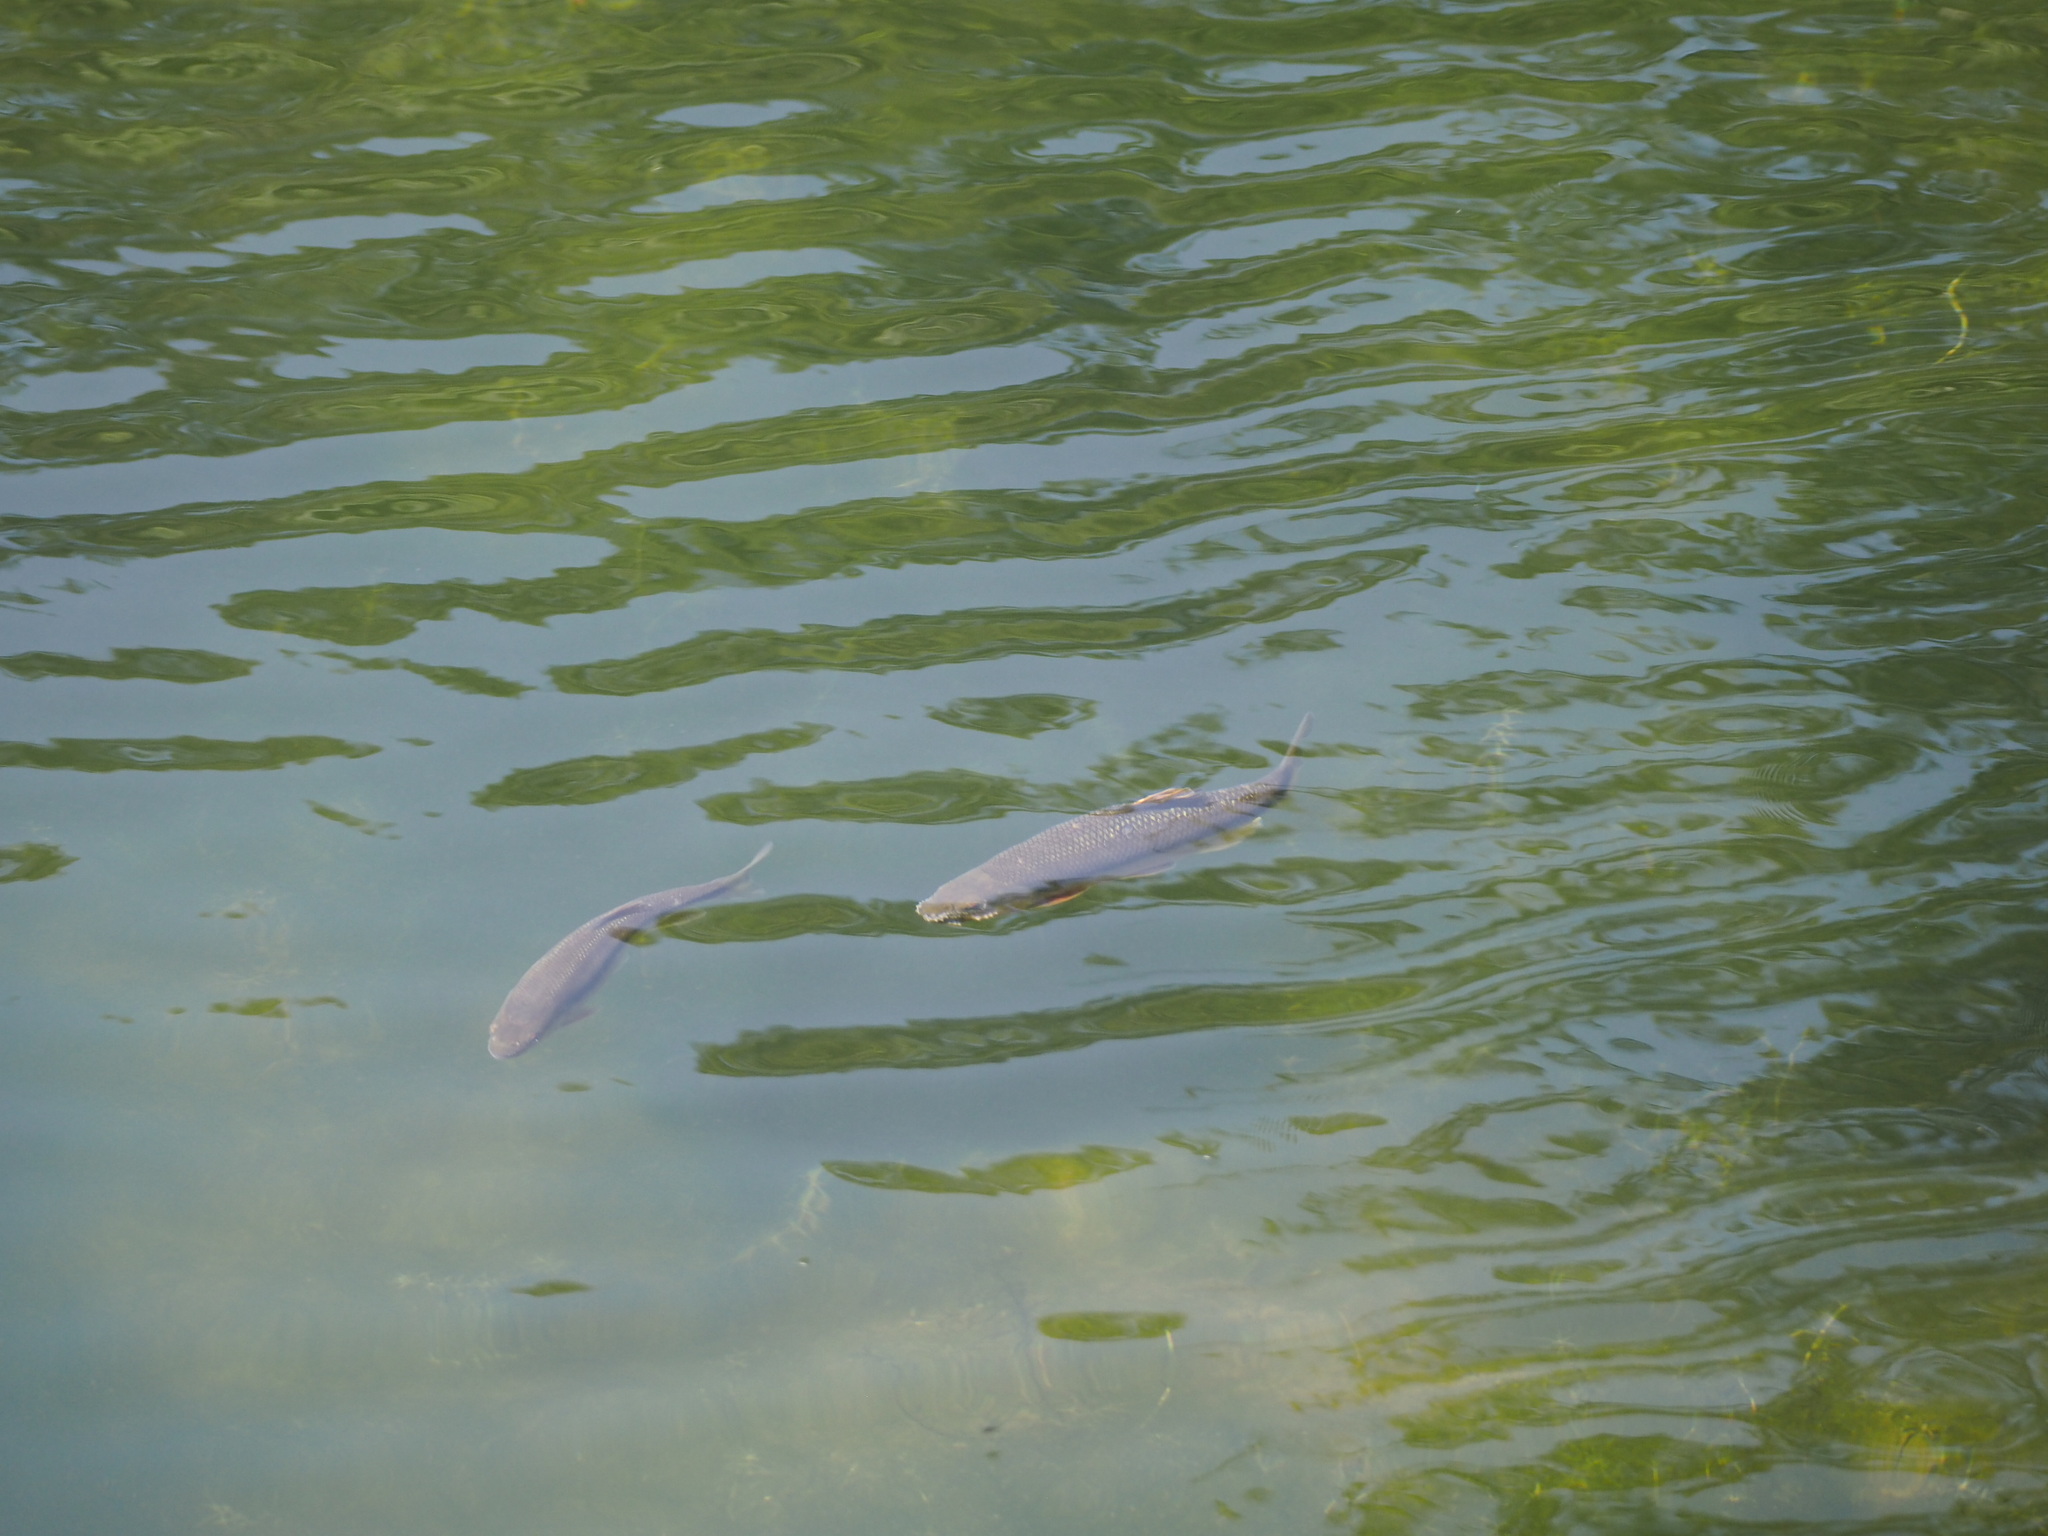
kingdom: Animalia
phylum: Chordata
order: Cypriniformes
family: Cyprinidae
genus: Candidia
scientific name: Candidia barbata
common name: Lake candidus dace
